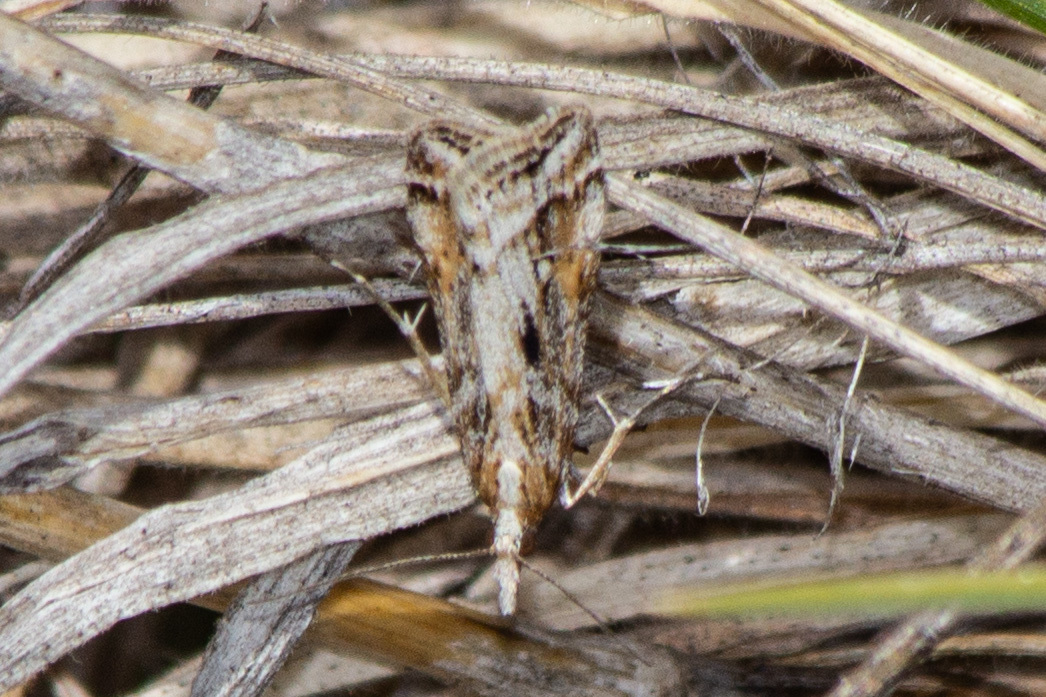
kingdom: Animalia
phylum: Arthropoda
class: Insecta
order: Lepidoptera
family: Crambidae
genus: Scoparia
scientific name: Scoparia exilis
